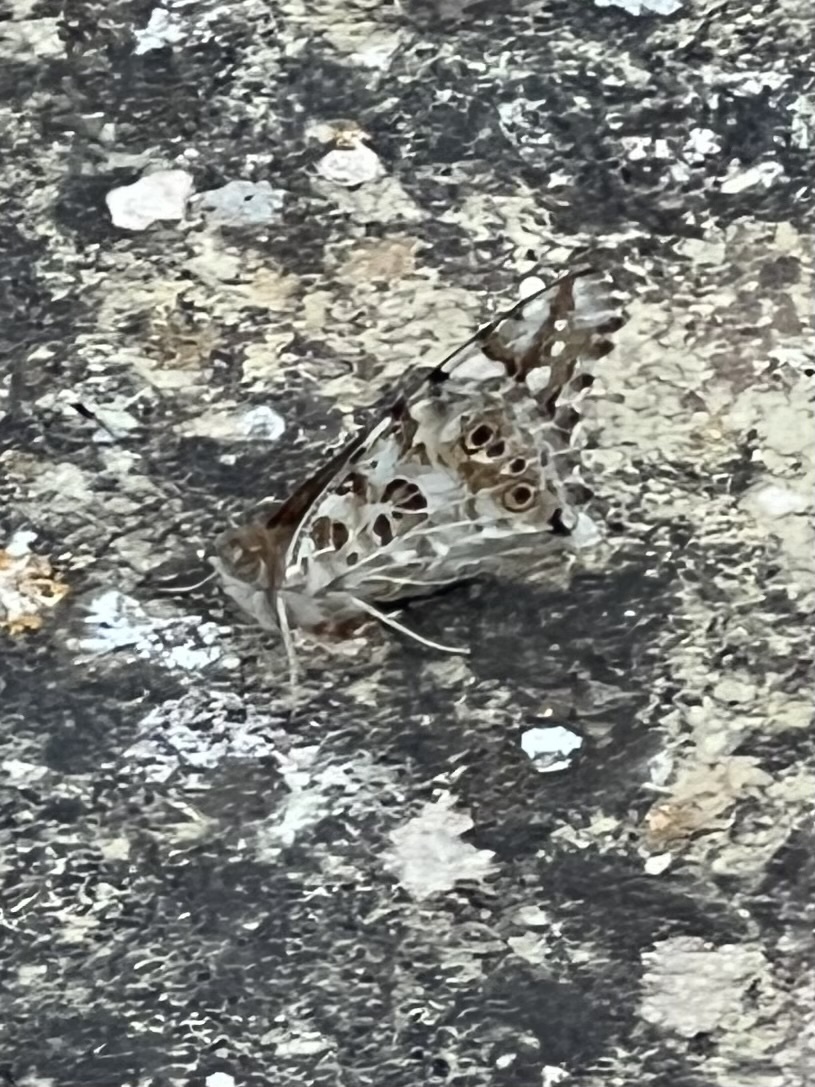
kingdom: Animalia
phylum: Arthropoda
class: Insecta
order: Lepidoptera
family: Nymphalidae
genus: Vanessa
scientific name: Vanessa cardui
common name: Painted lady
